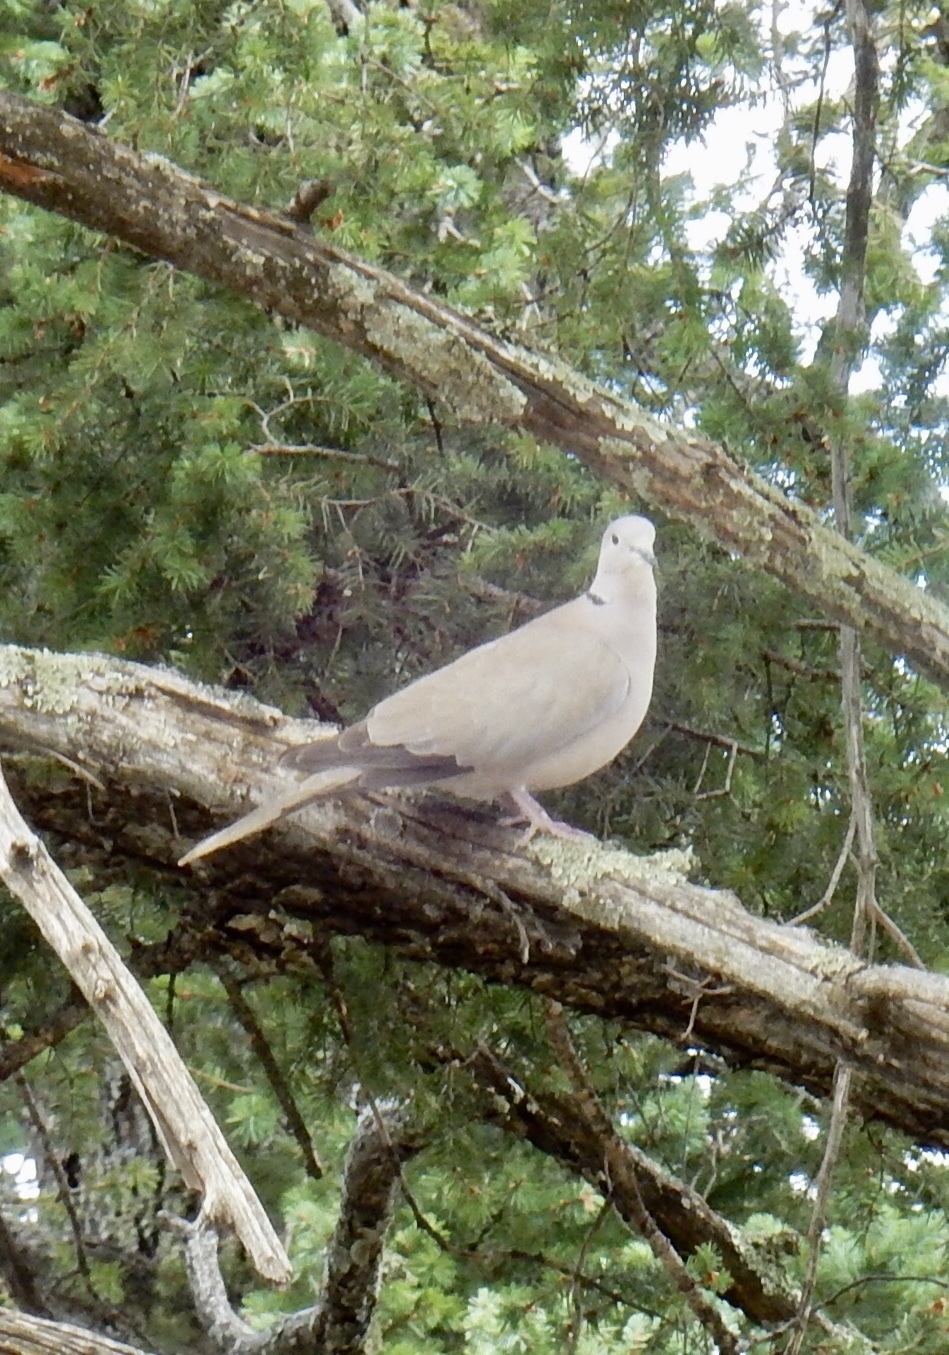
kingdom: Animalia
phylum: Chordata
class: Aves
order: Columbiformes
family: Columbidae
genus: Streptopelia
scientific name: Streptopelia decaocto
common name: Eurasian collared dove
